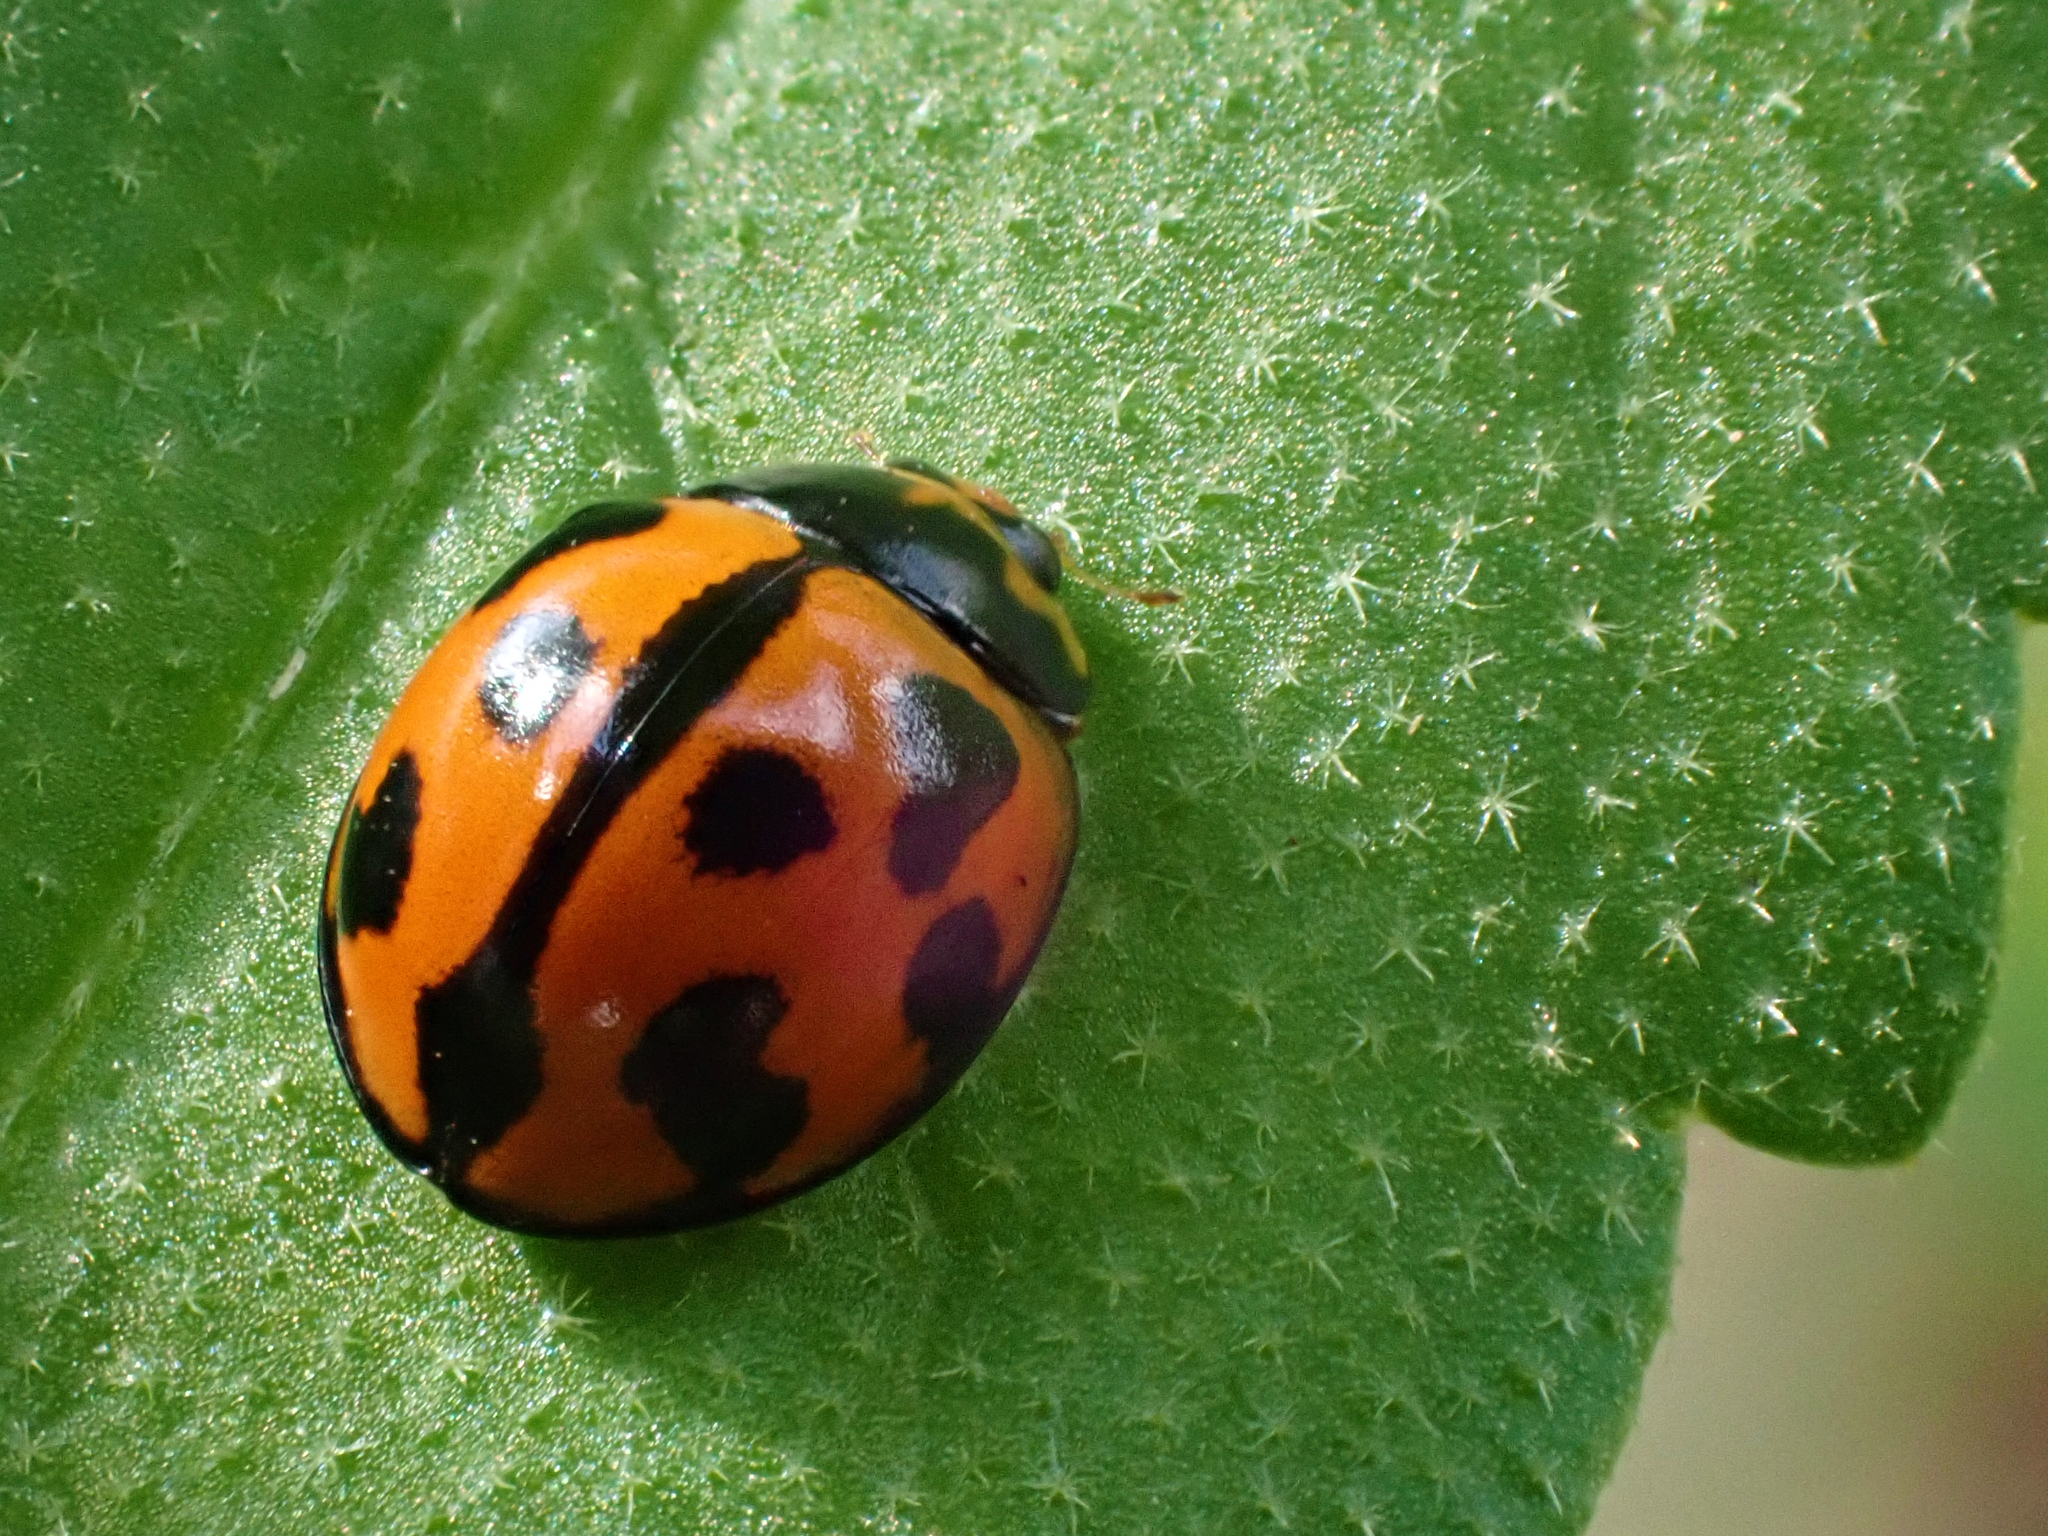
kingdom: Animalia
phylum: Arthropoda
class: Insecta
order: Coleoptera
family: Coccinellidae
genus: Coelophora
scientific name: Coelophora inaequalis
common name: Common australian lady beetle
